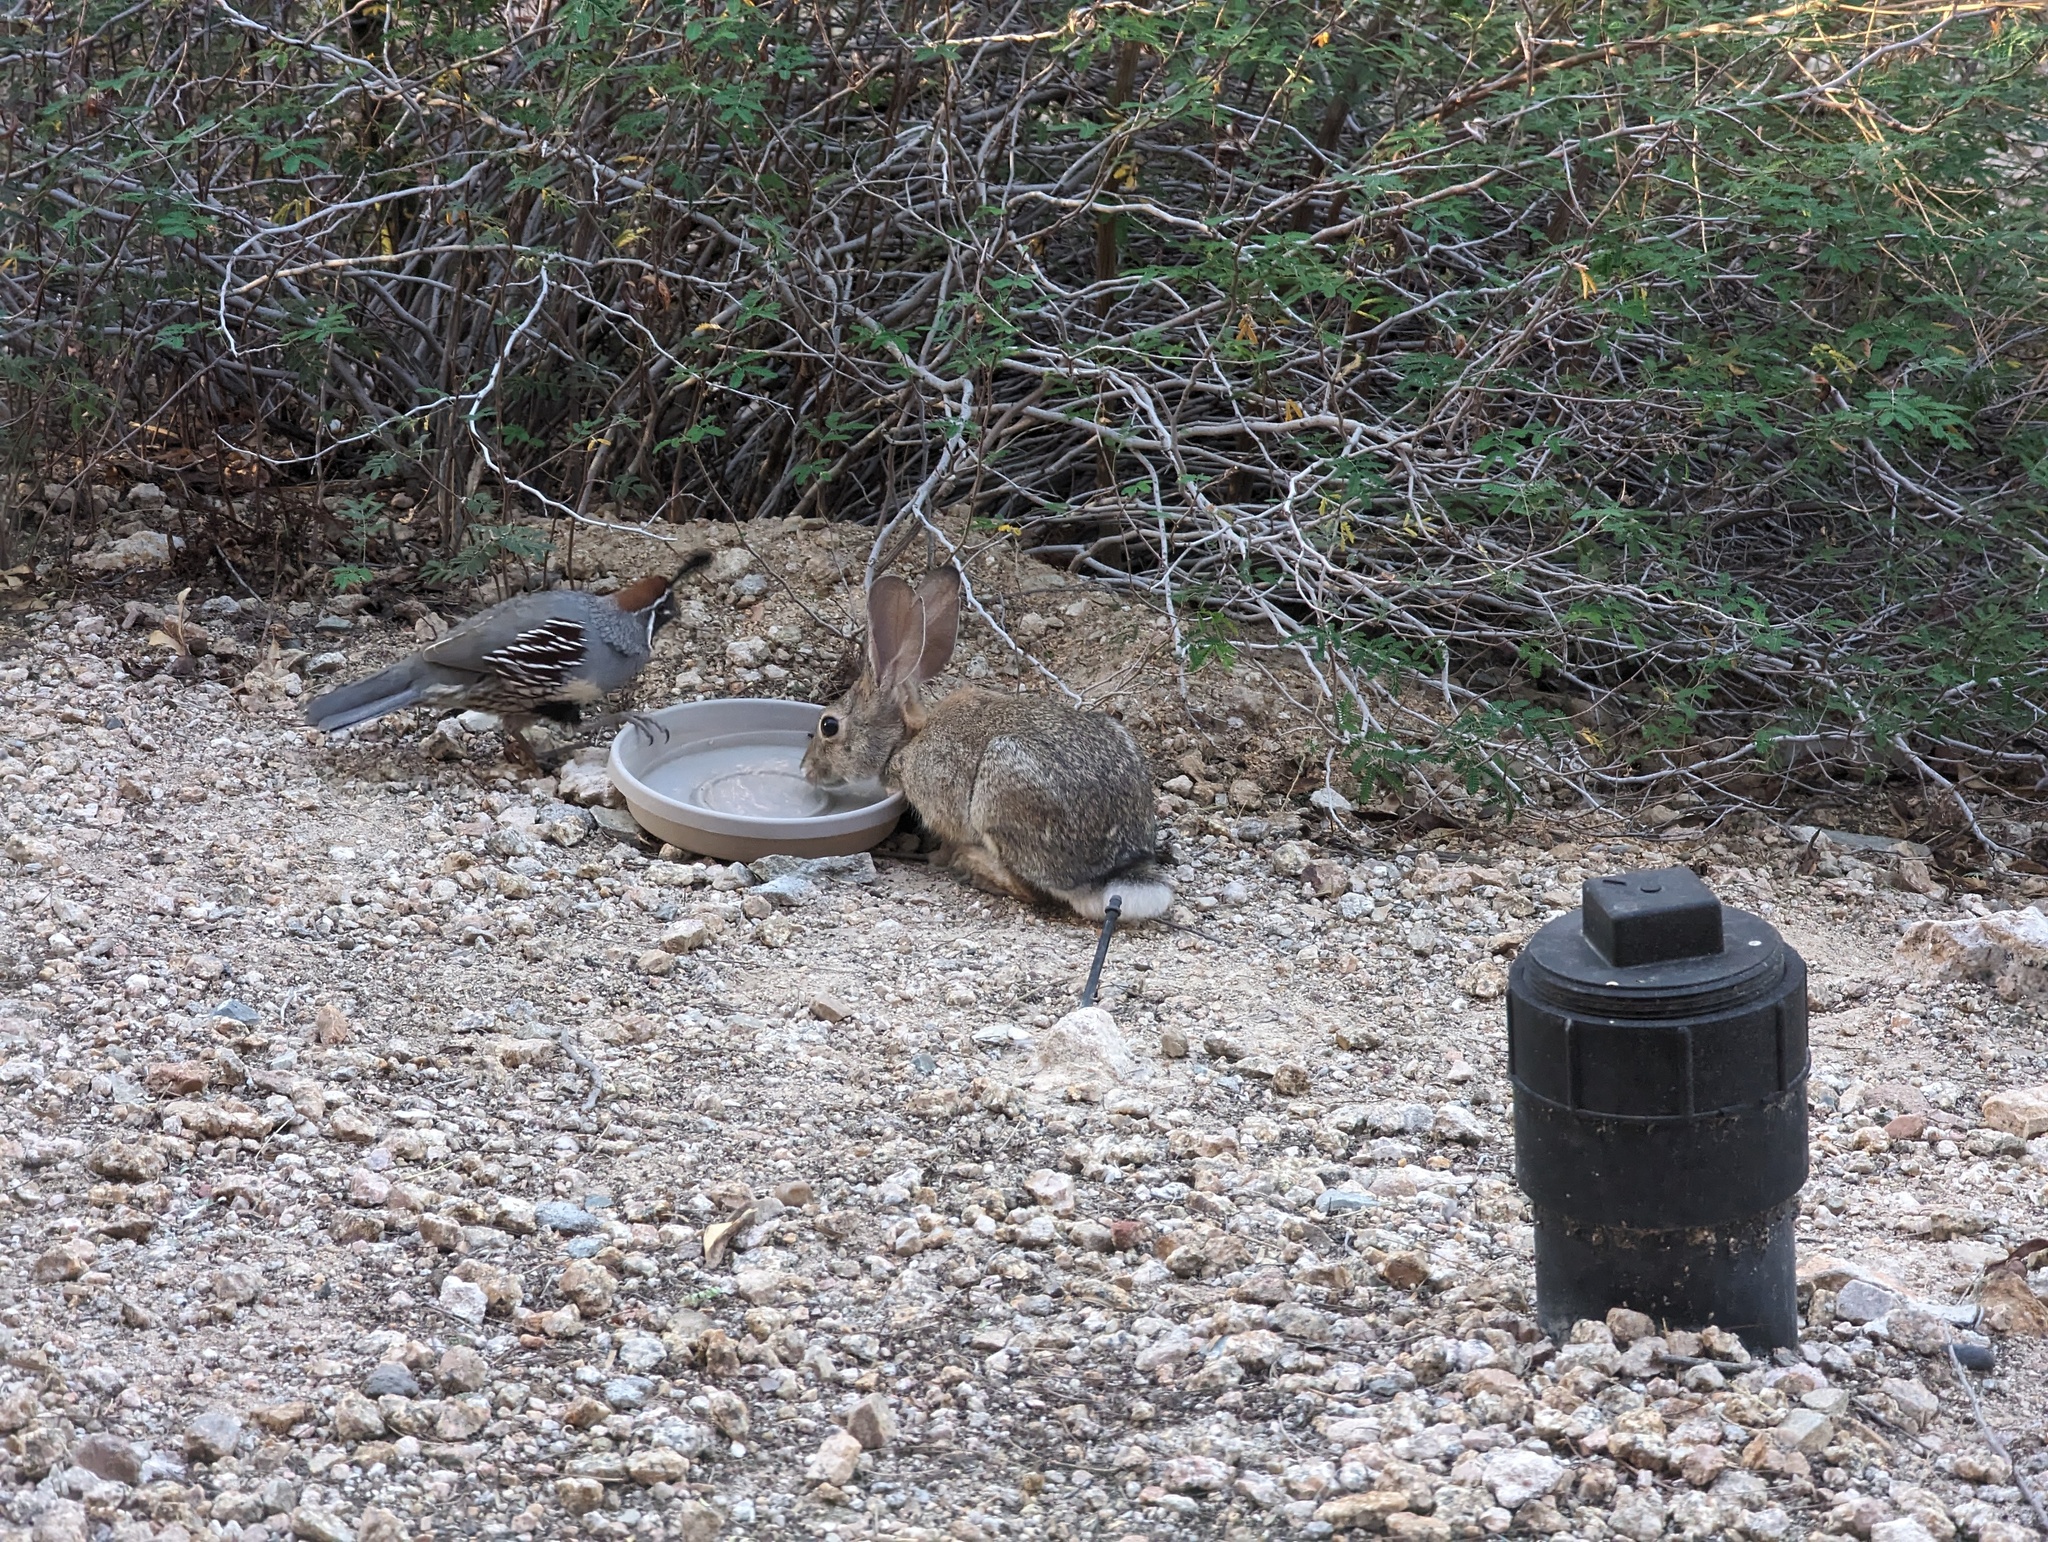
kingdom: Animalia
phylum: Chordata
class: Mammalia
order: Lagomorpha
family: Leporidae
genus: Sylvilagus
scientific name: Sylvilagus audubonii
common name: Desert cottontail
